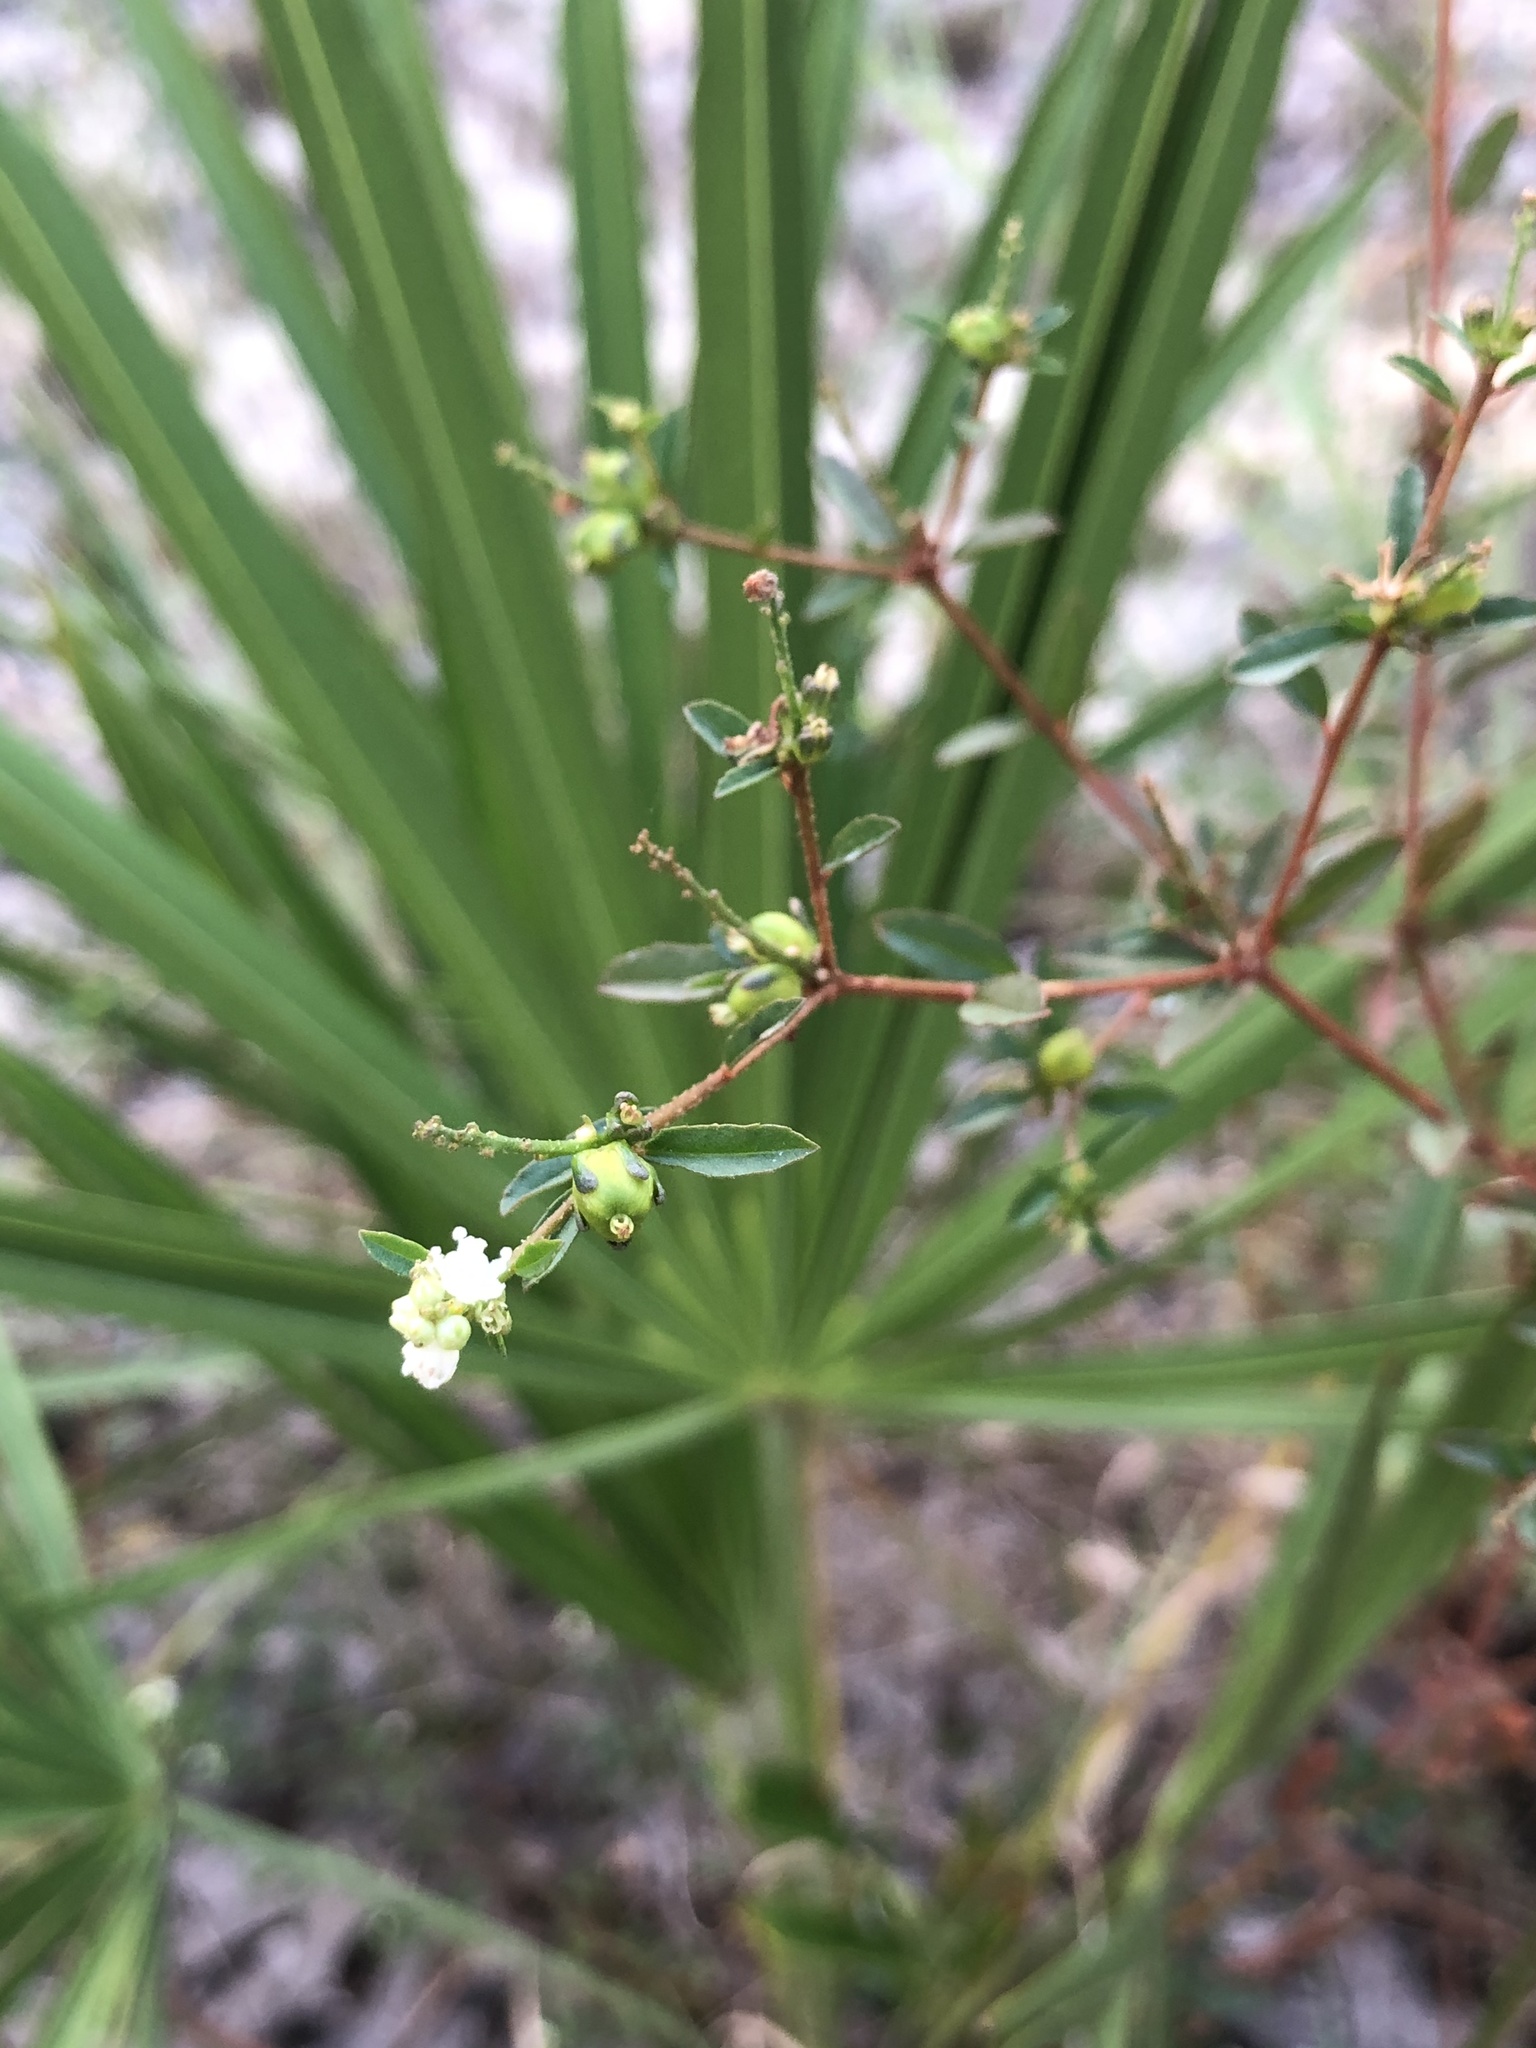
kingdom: Plantae
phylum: Tracheophyta
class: Magnoliopsida
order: Malpighiales
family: Euphorbiaceae
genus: Croton
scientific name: Croton glandulosus
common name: Tropic croton
